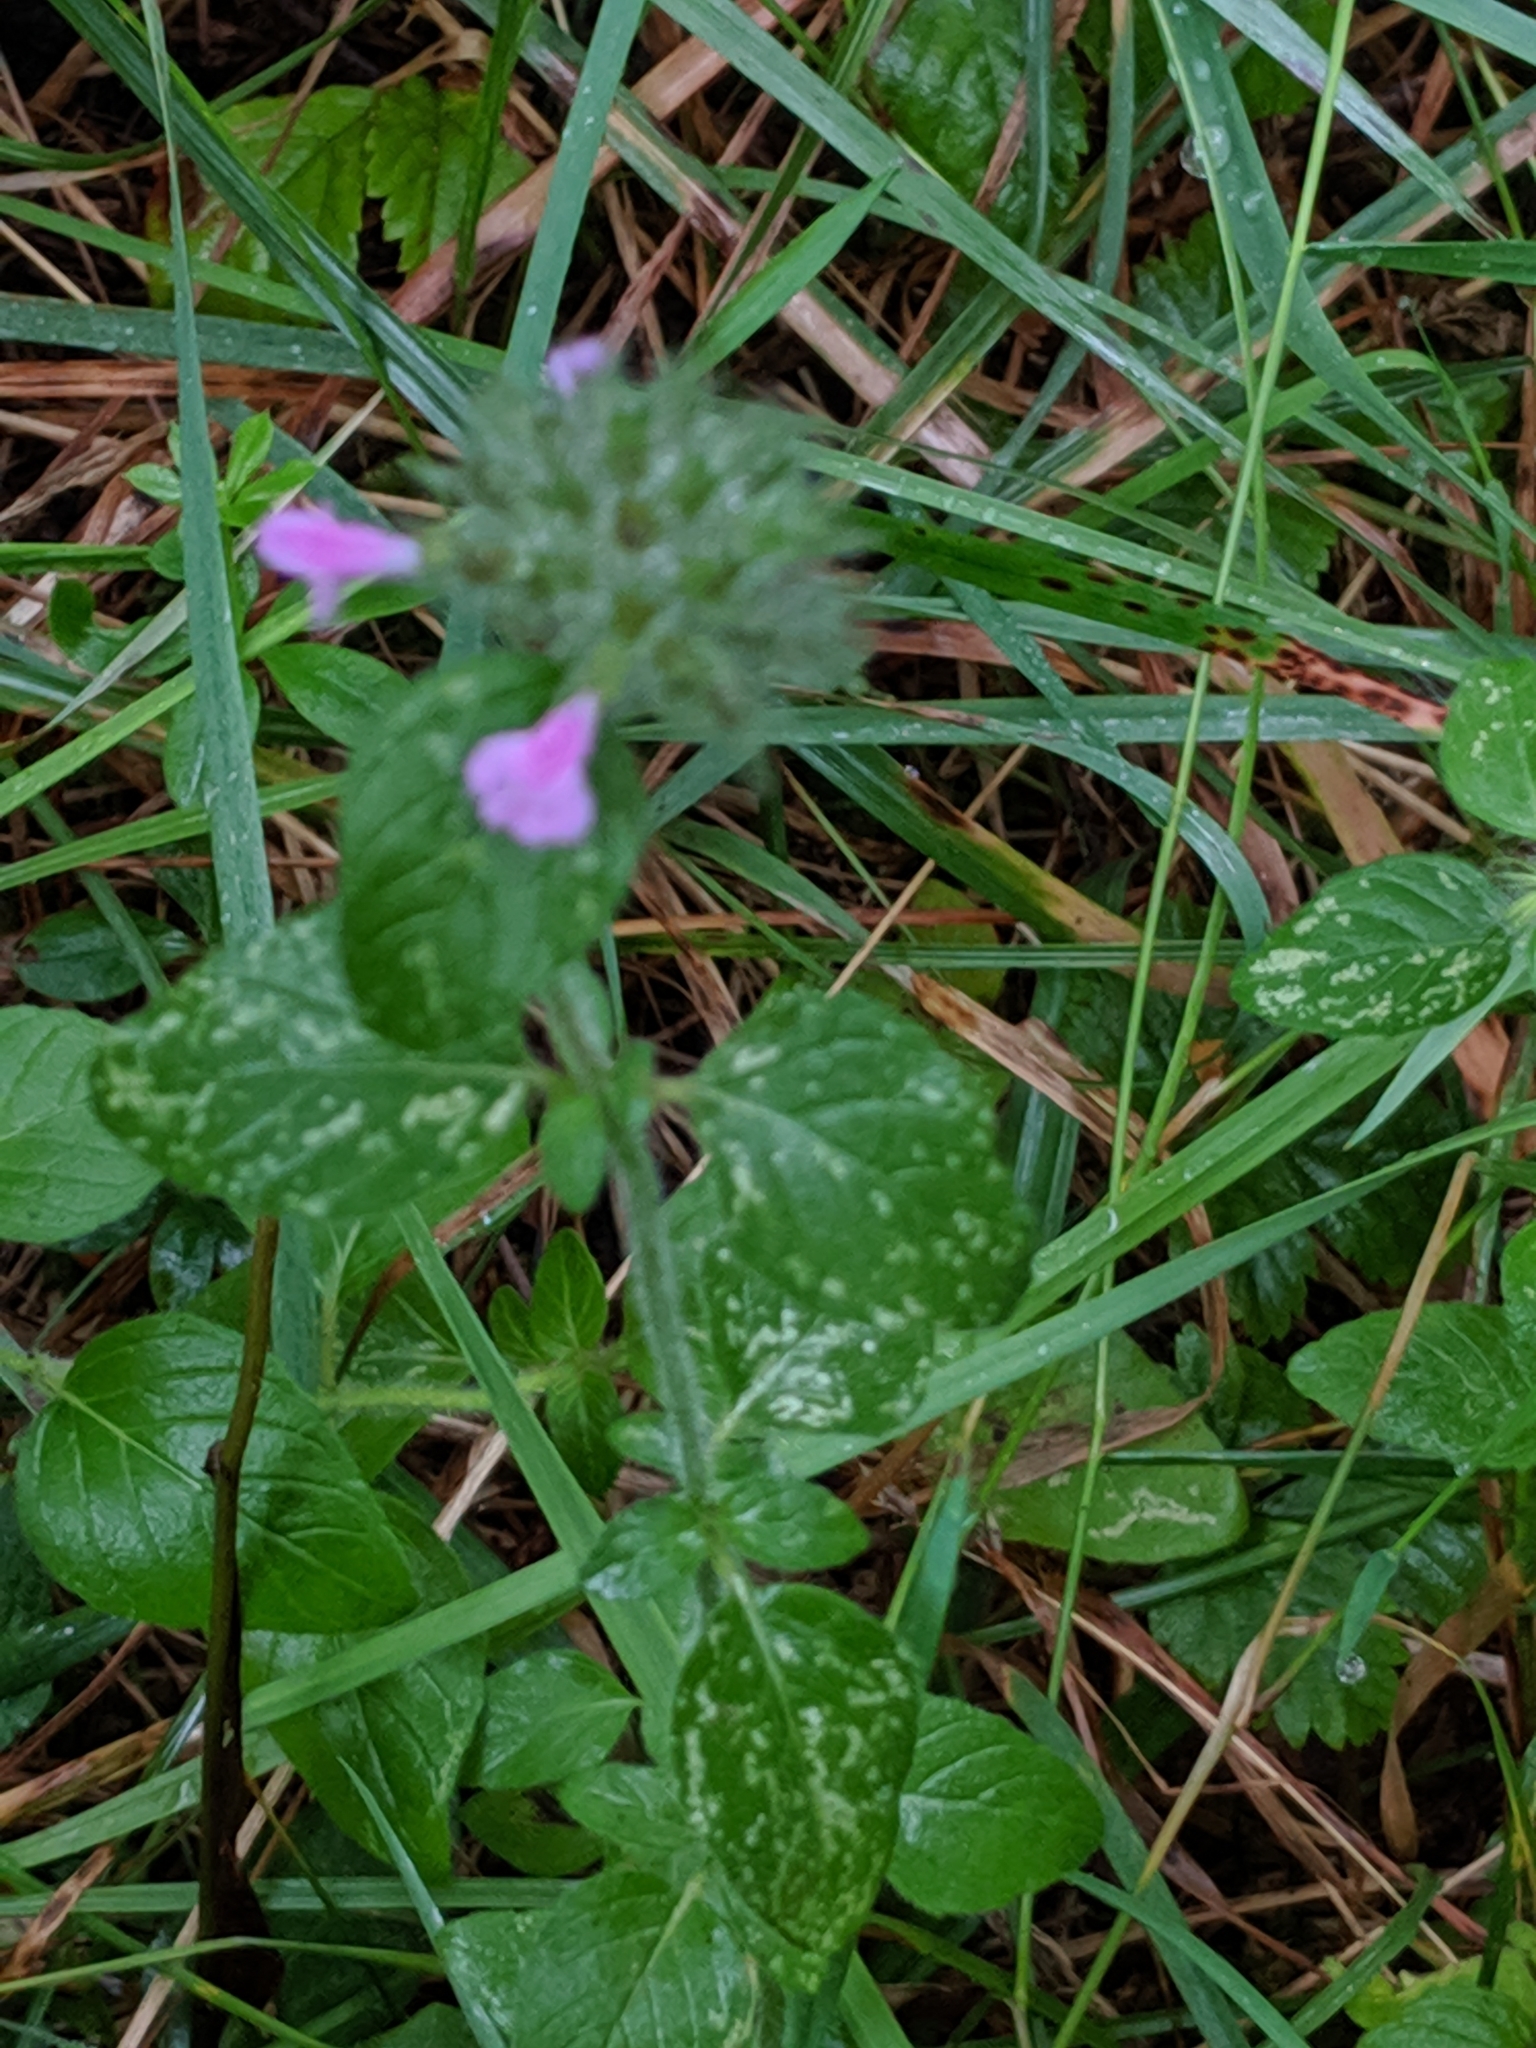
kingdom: Plantae
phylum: Tracheophyta
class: Magnoliopsida
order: Lamiales
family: Lamiaceae
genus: Clinopodium
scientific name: Clinopodium vulgare
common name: Wild basil
